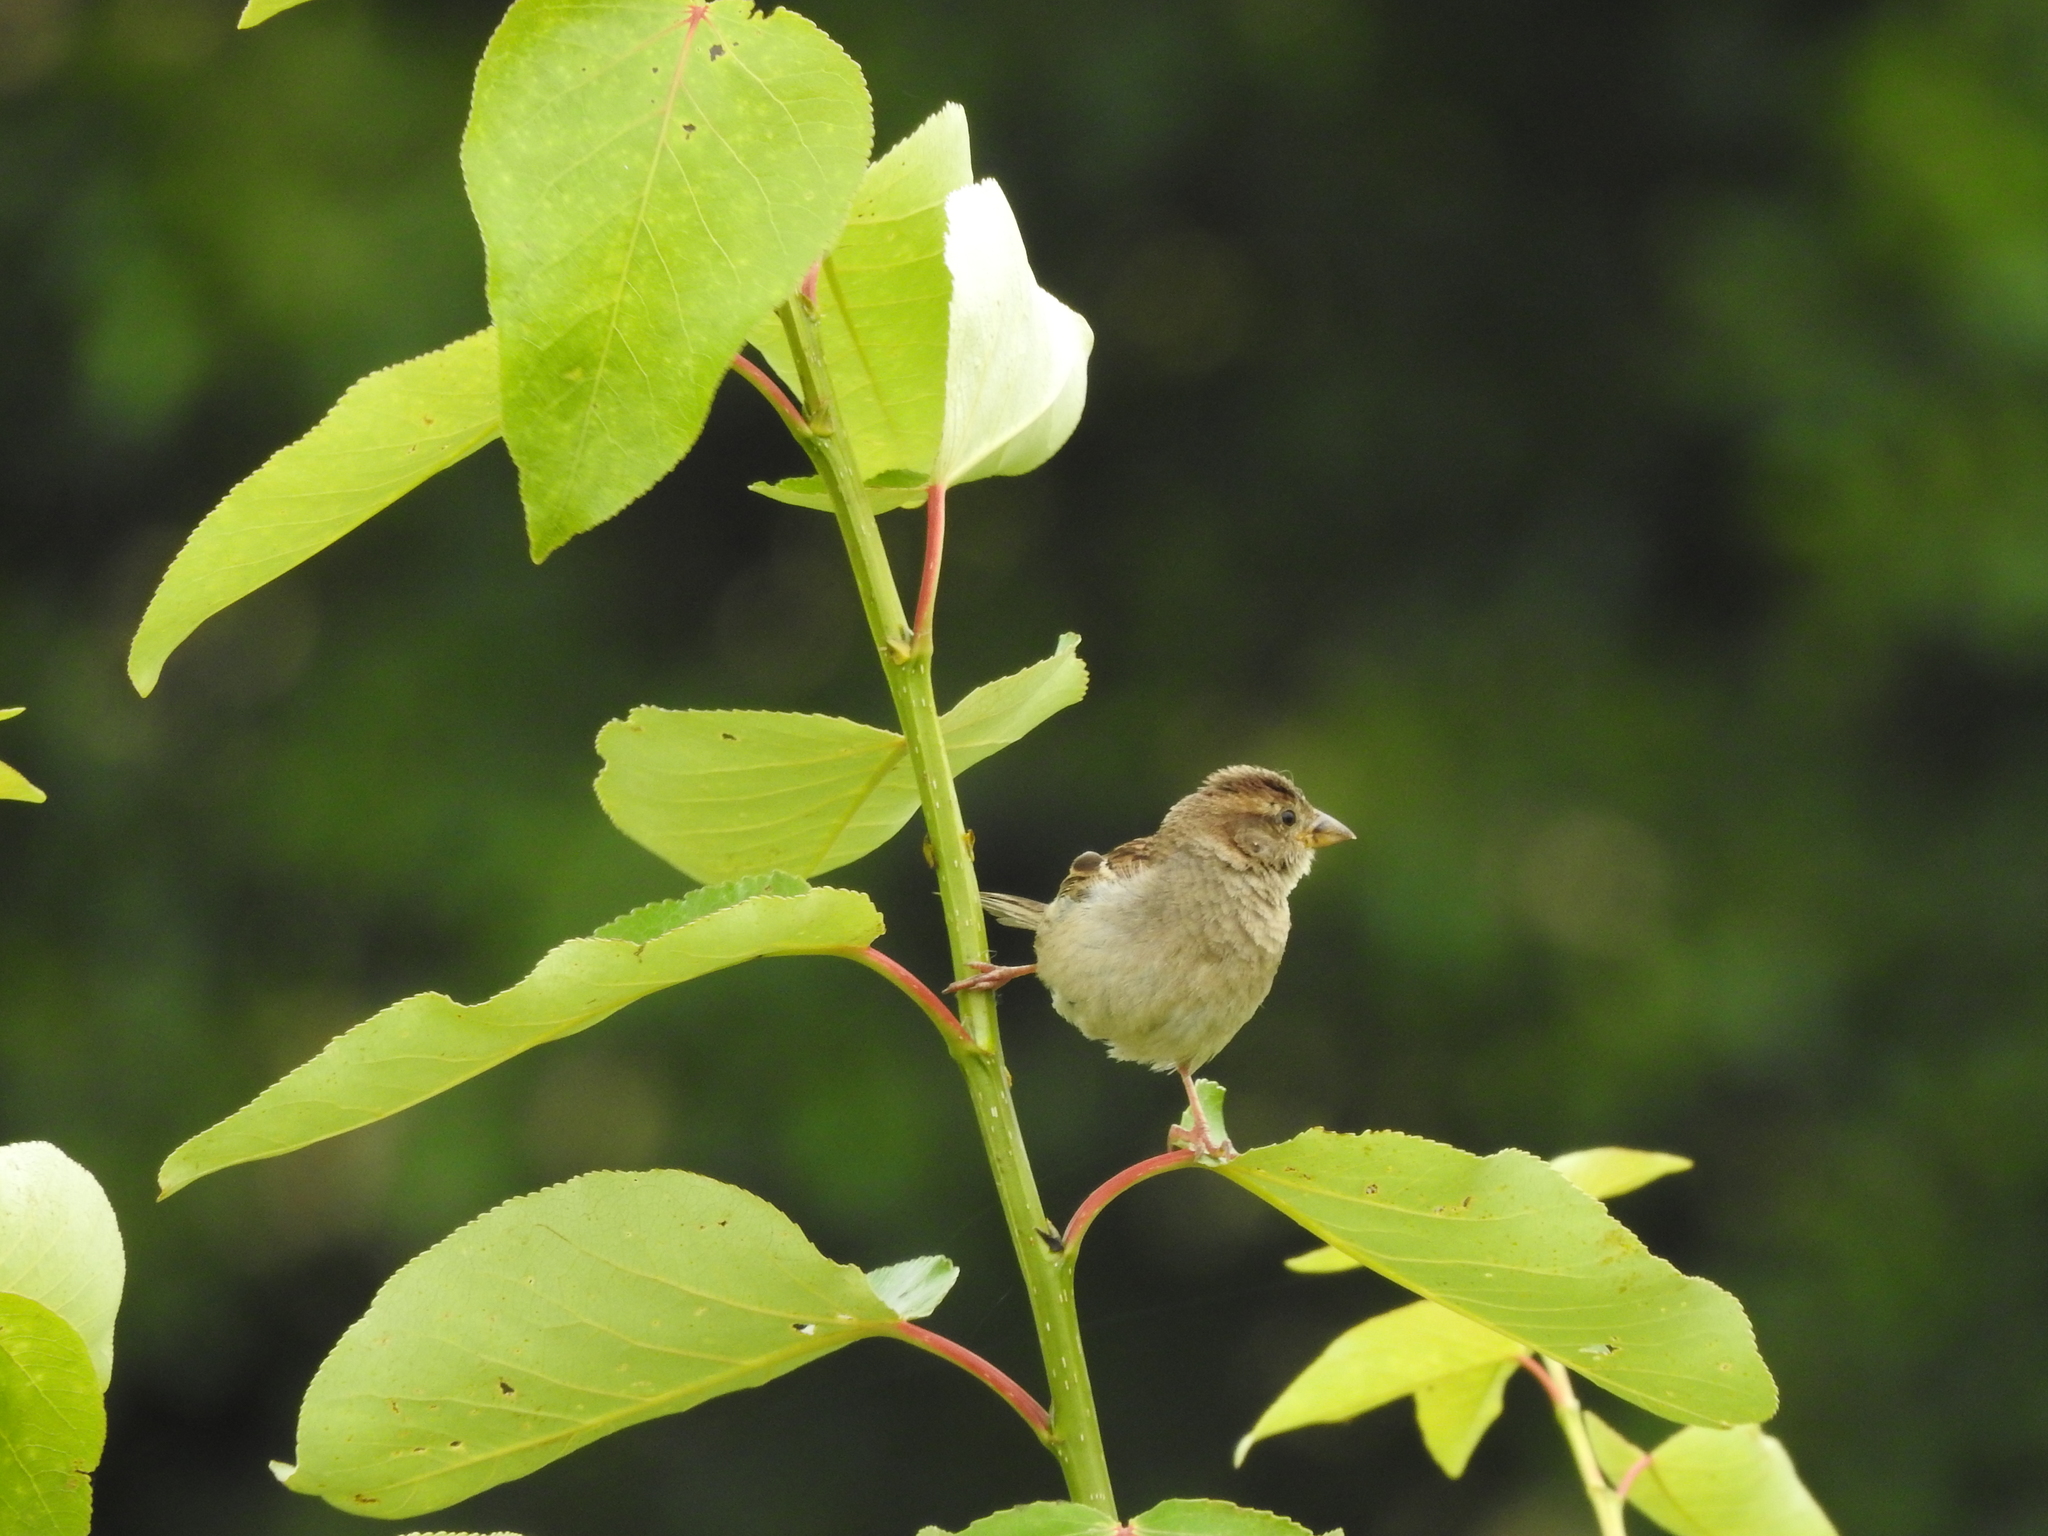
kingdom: Animalia
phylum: Chordata
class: Aves
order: Passeriformes
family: Passeridae
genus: Passer
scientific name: Passer domesticus
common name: House sparrow
